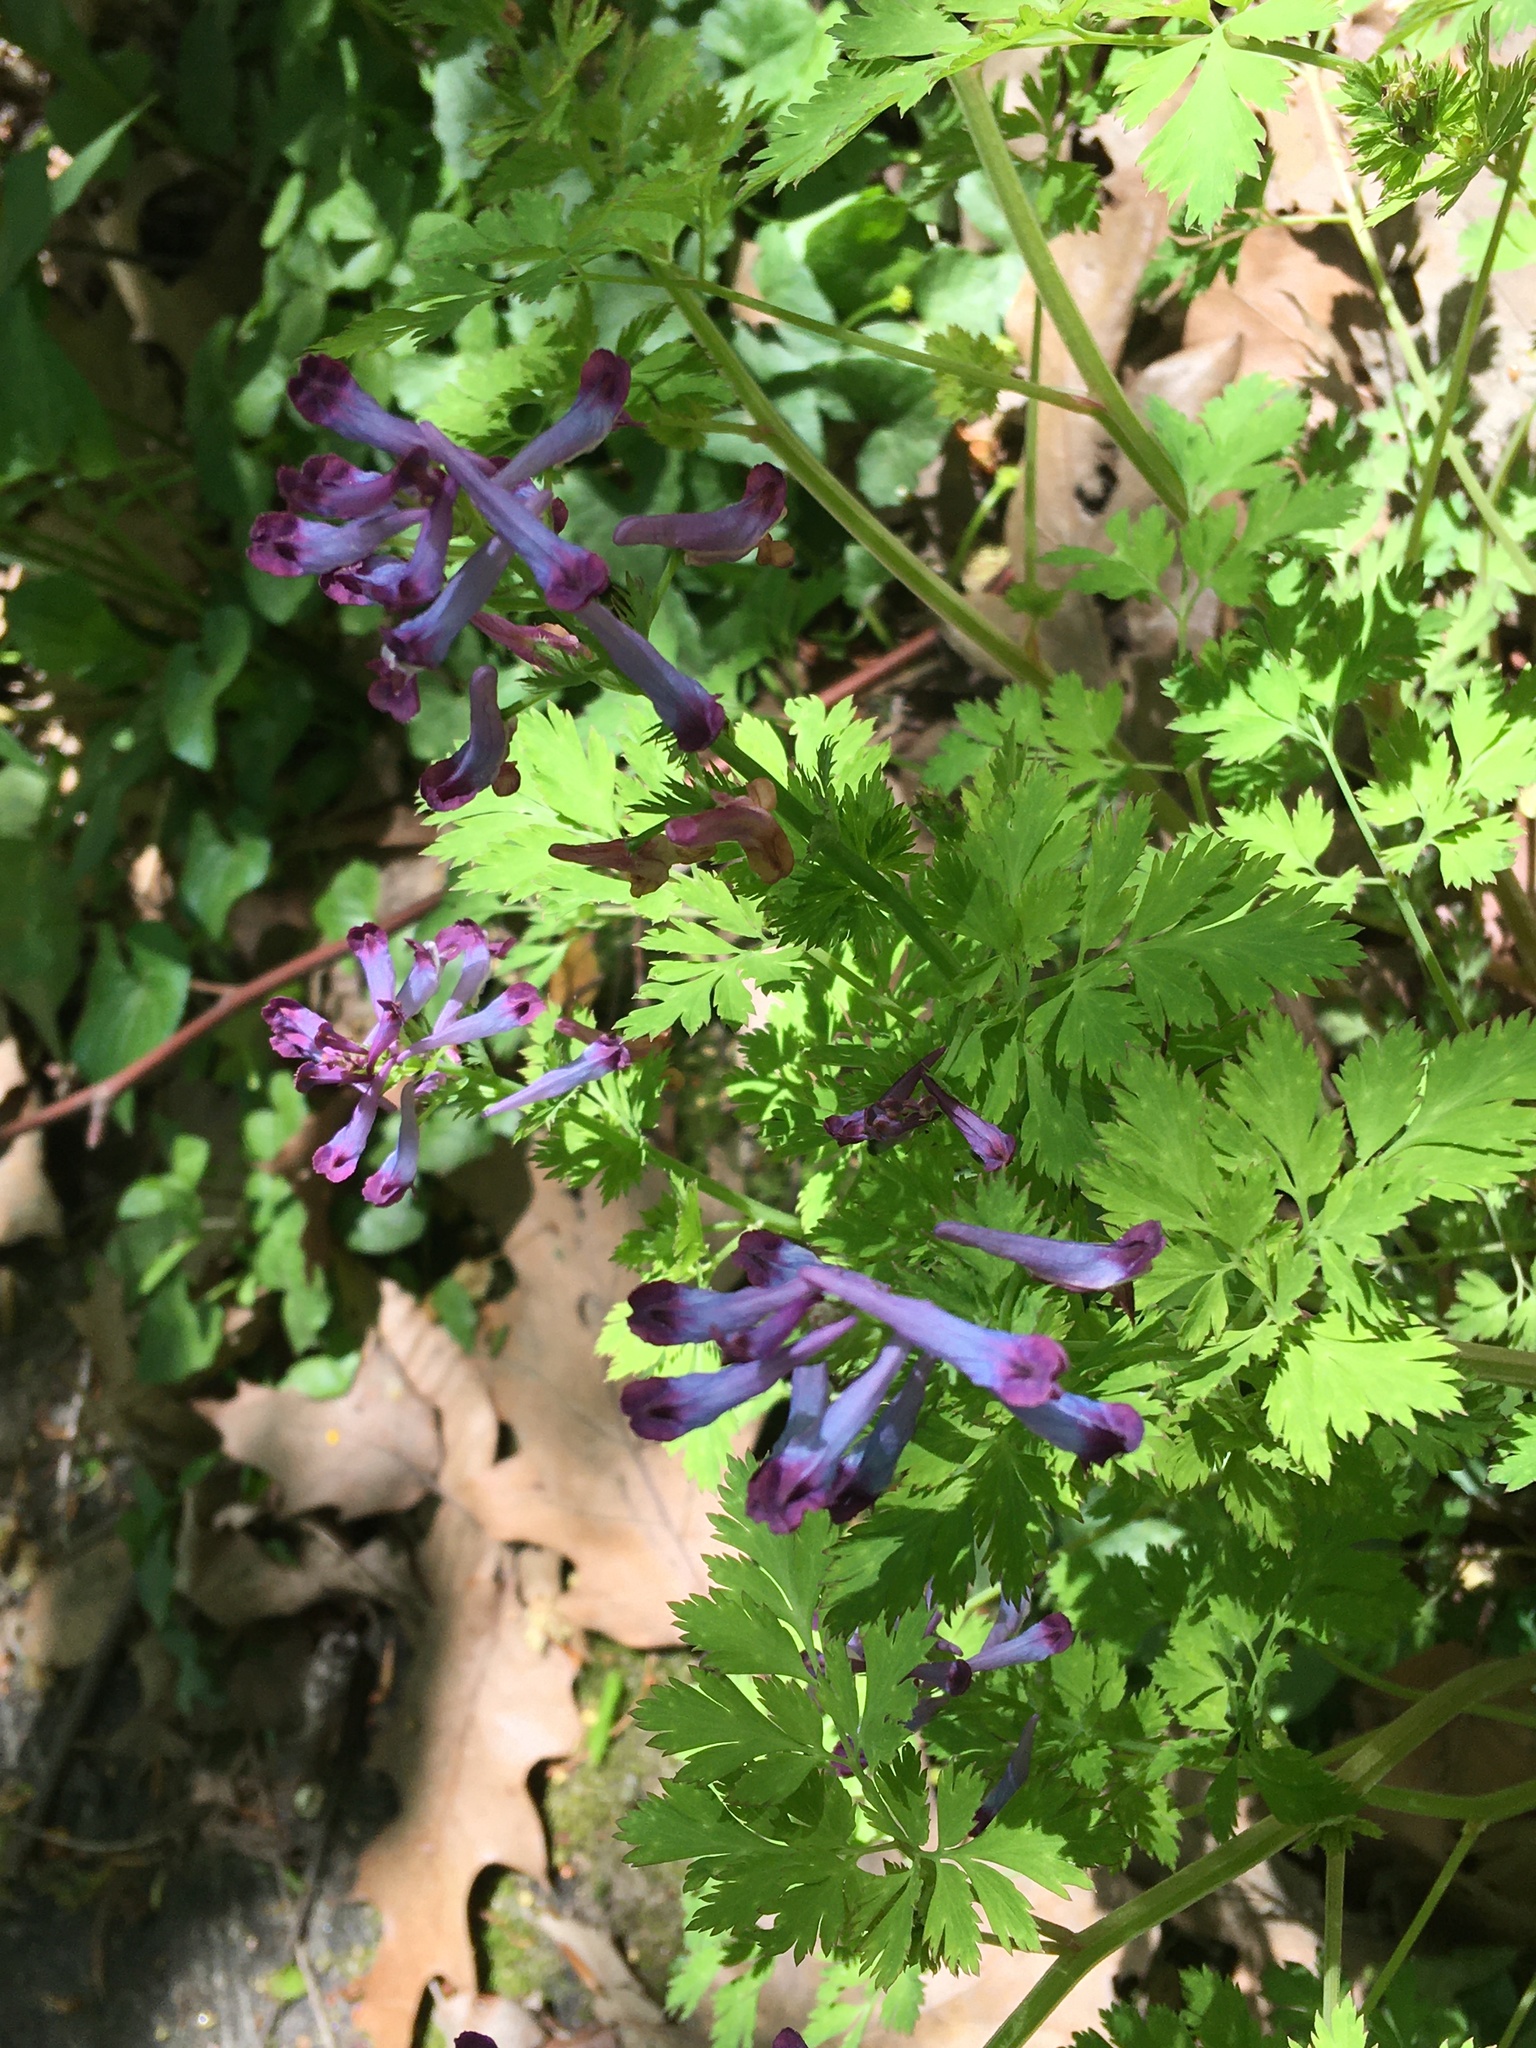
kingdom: Plantae
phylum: Tracheophyta
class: Magnoliopsida
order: Ranunculales
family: Papaveraceae
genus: Corydalis
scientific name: Corydalis incisa
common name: Incised fumewort
